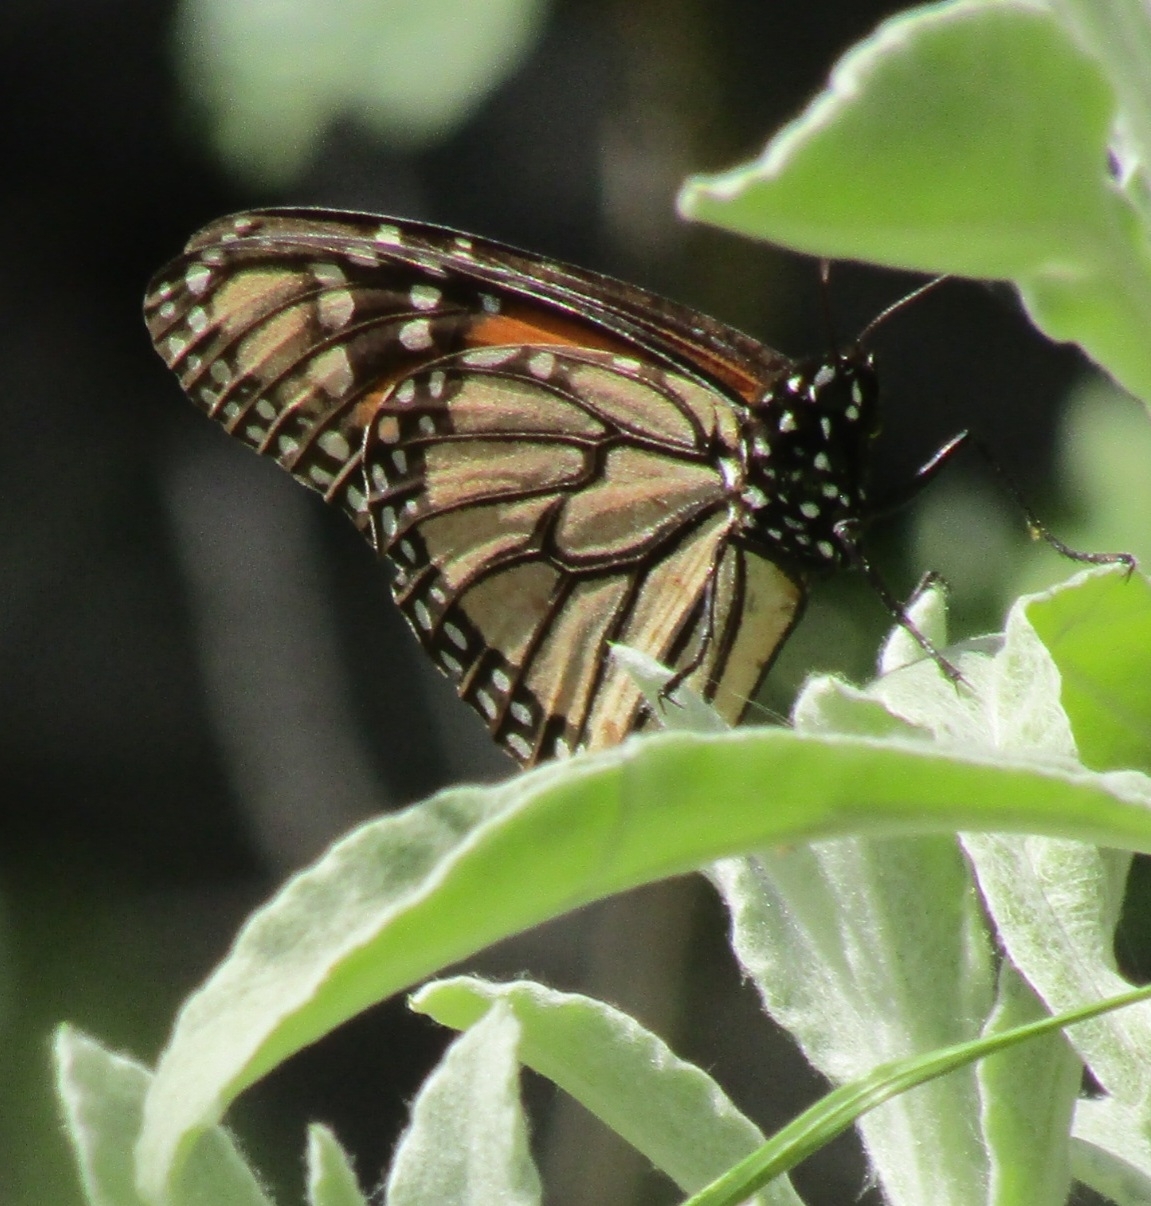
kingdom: Animalia
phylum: Arthropoda
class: Insecta
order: Lepidoptera
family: Nymphalidae
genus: Danaus
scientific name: Danaus plexippus
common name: Monarch
